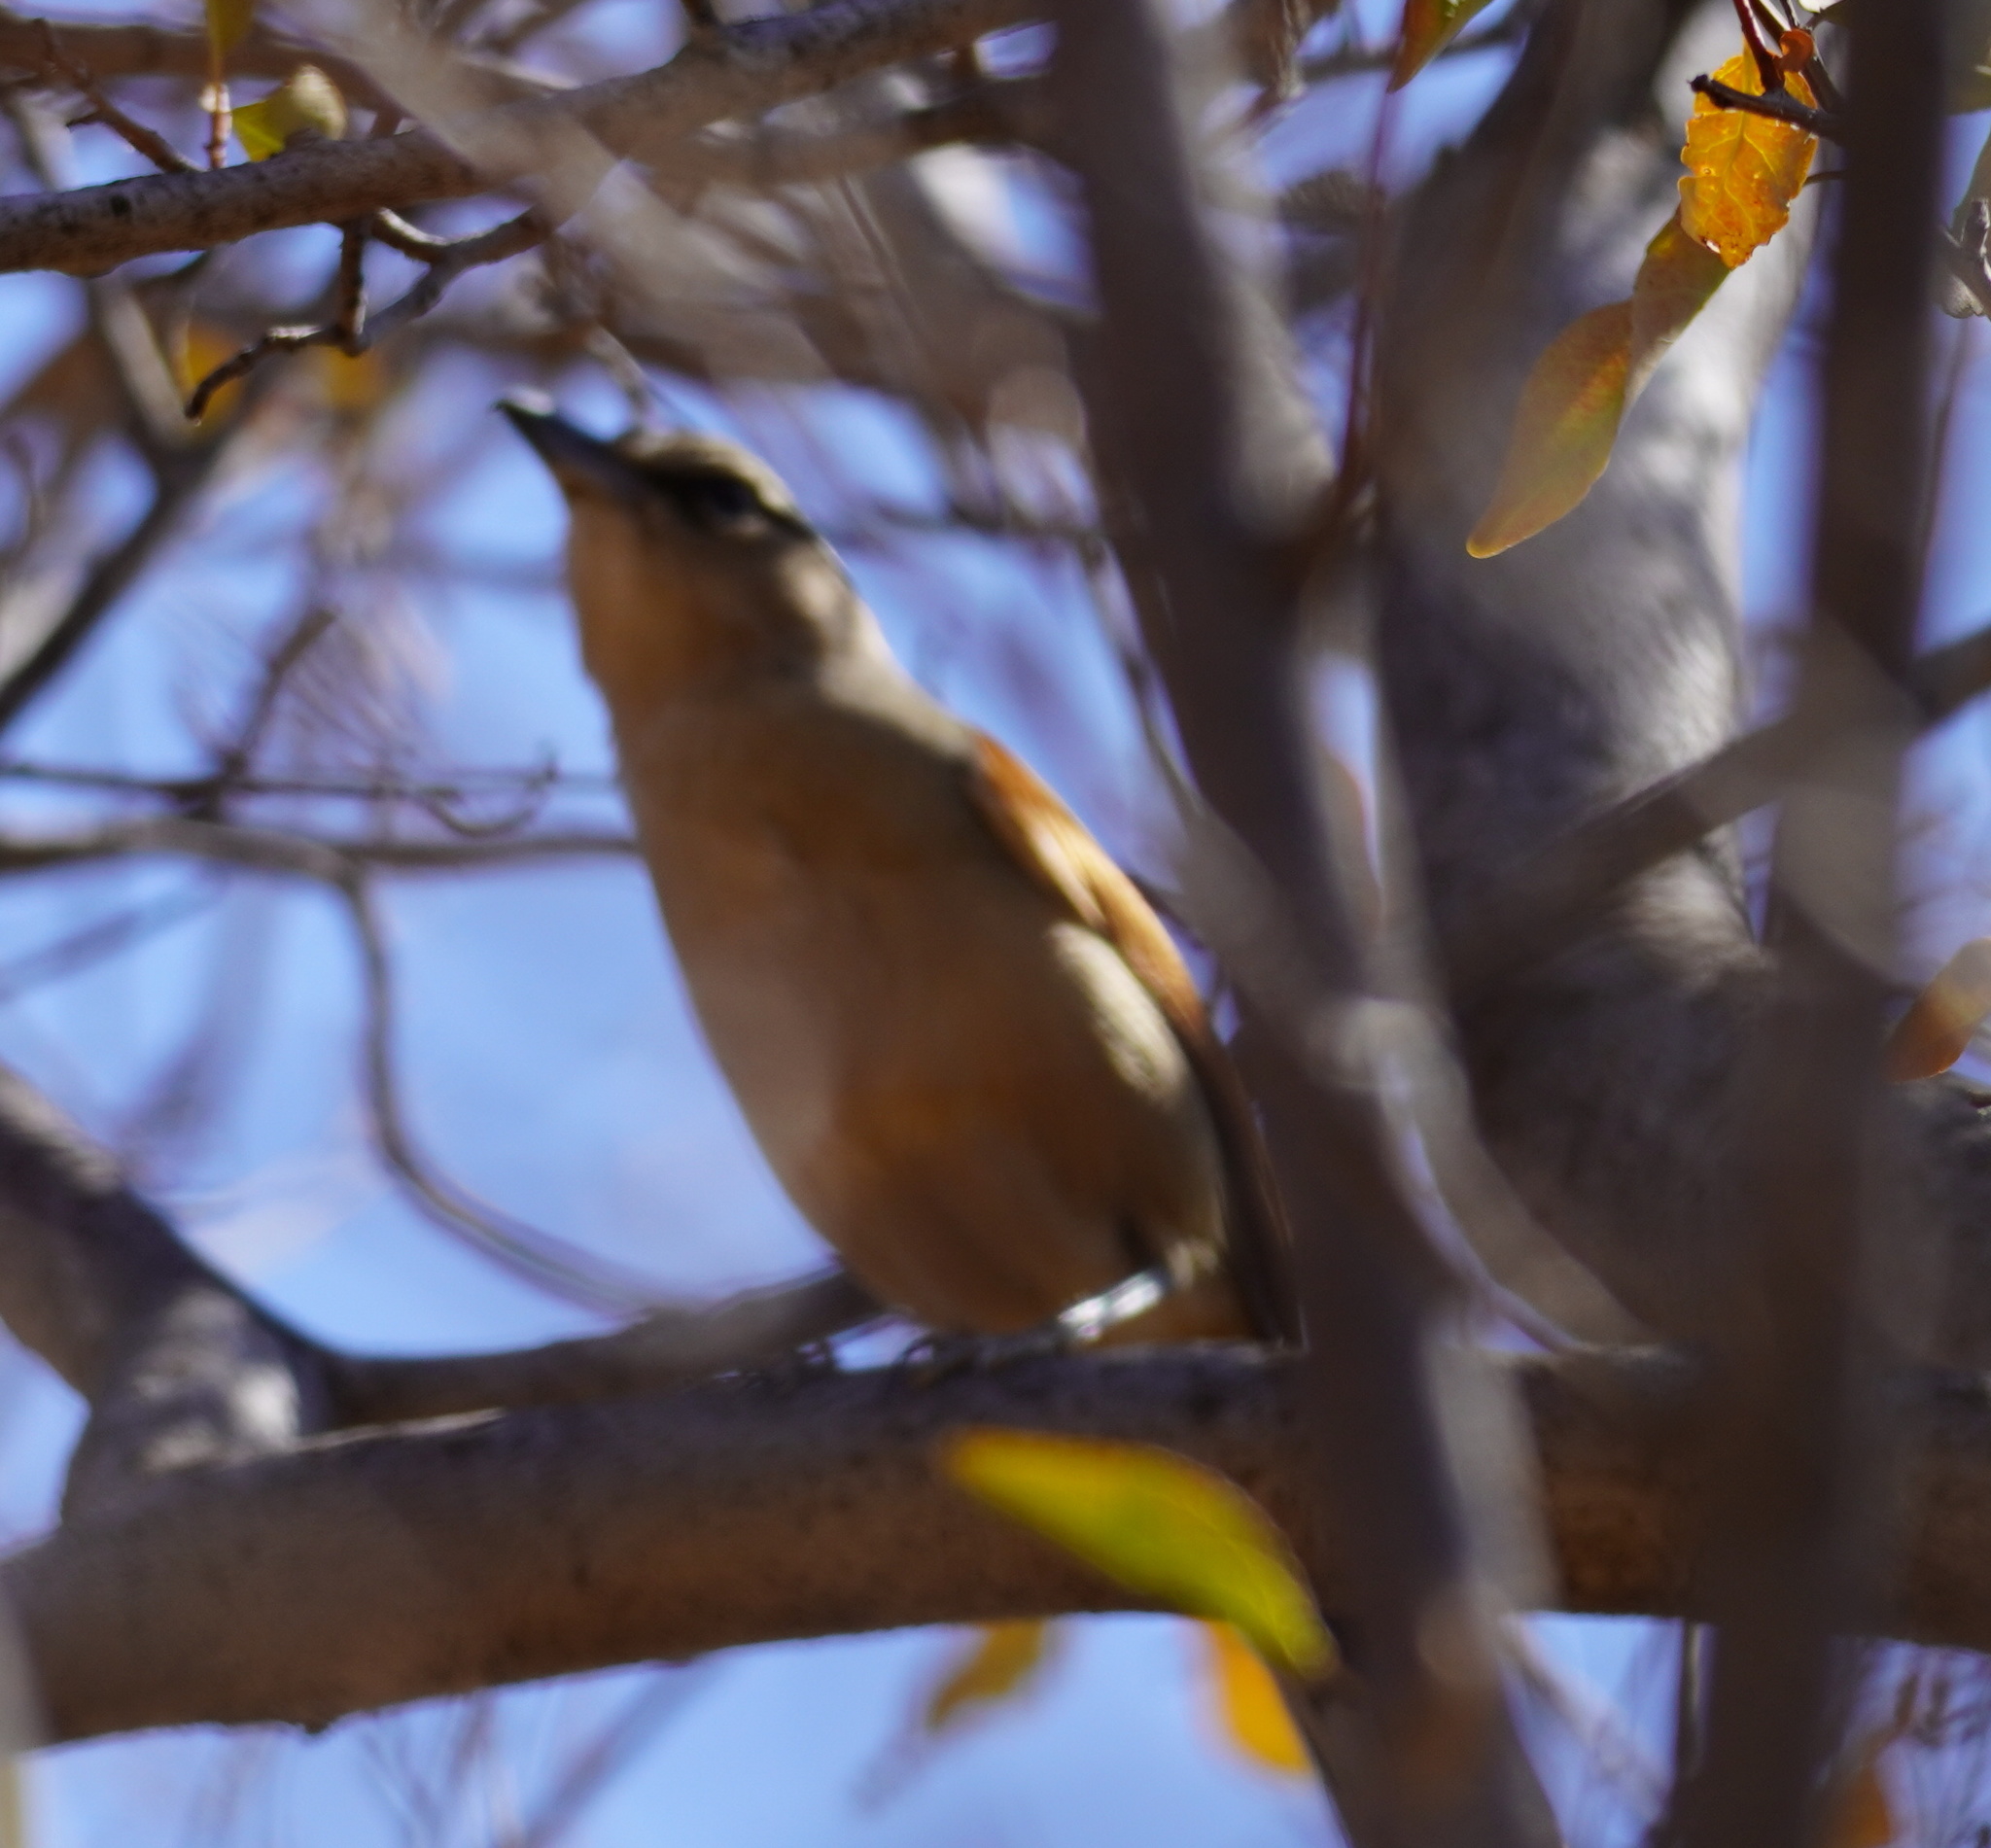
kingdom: Animalia
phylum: Chordata
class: Aves
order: Passeriformes
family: Malaconotidae
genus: Tchagra
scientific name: Tchagra australis
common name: Brown-crowned tchagra
